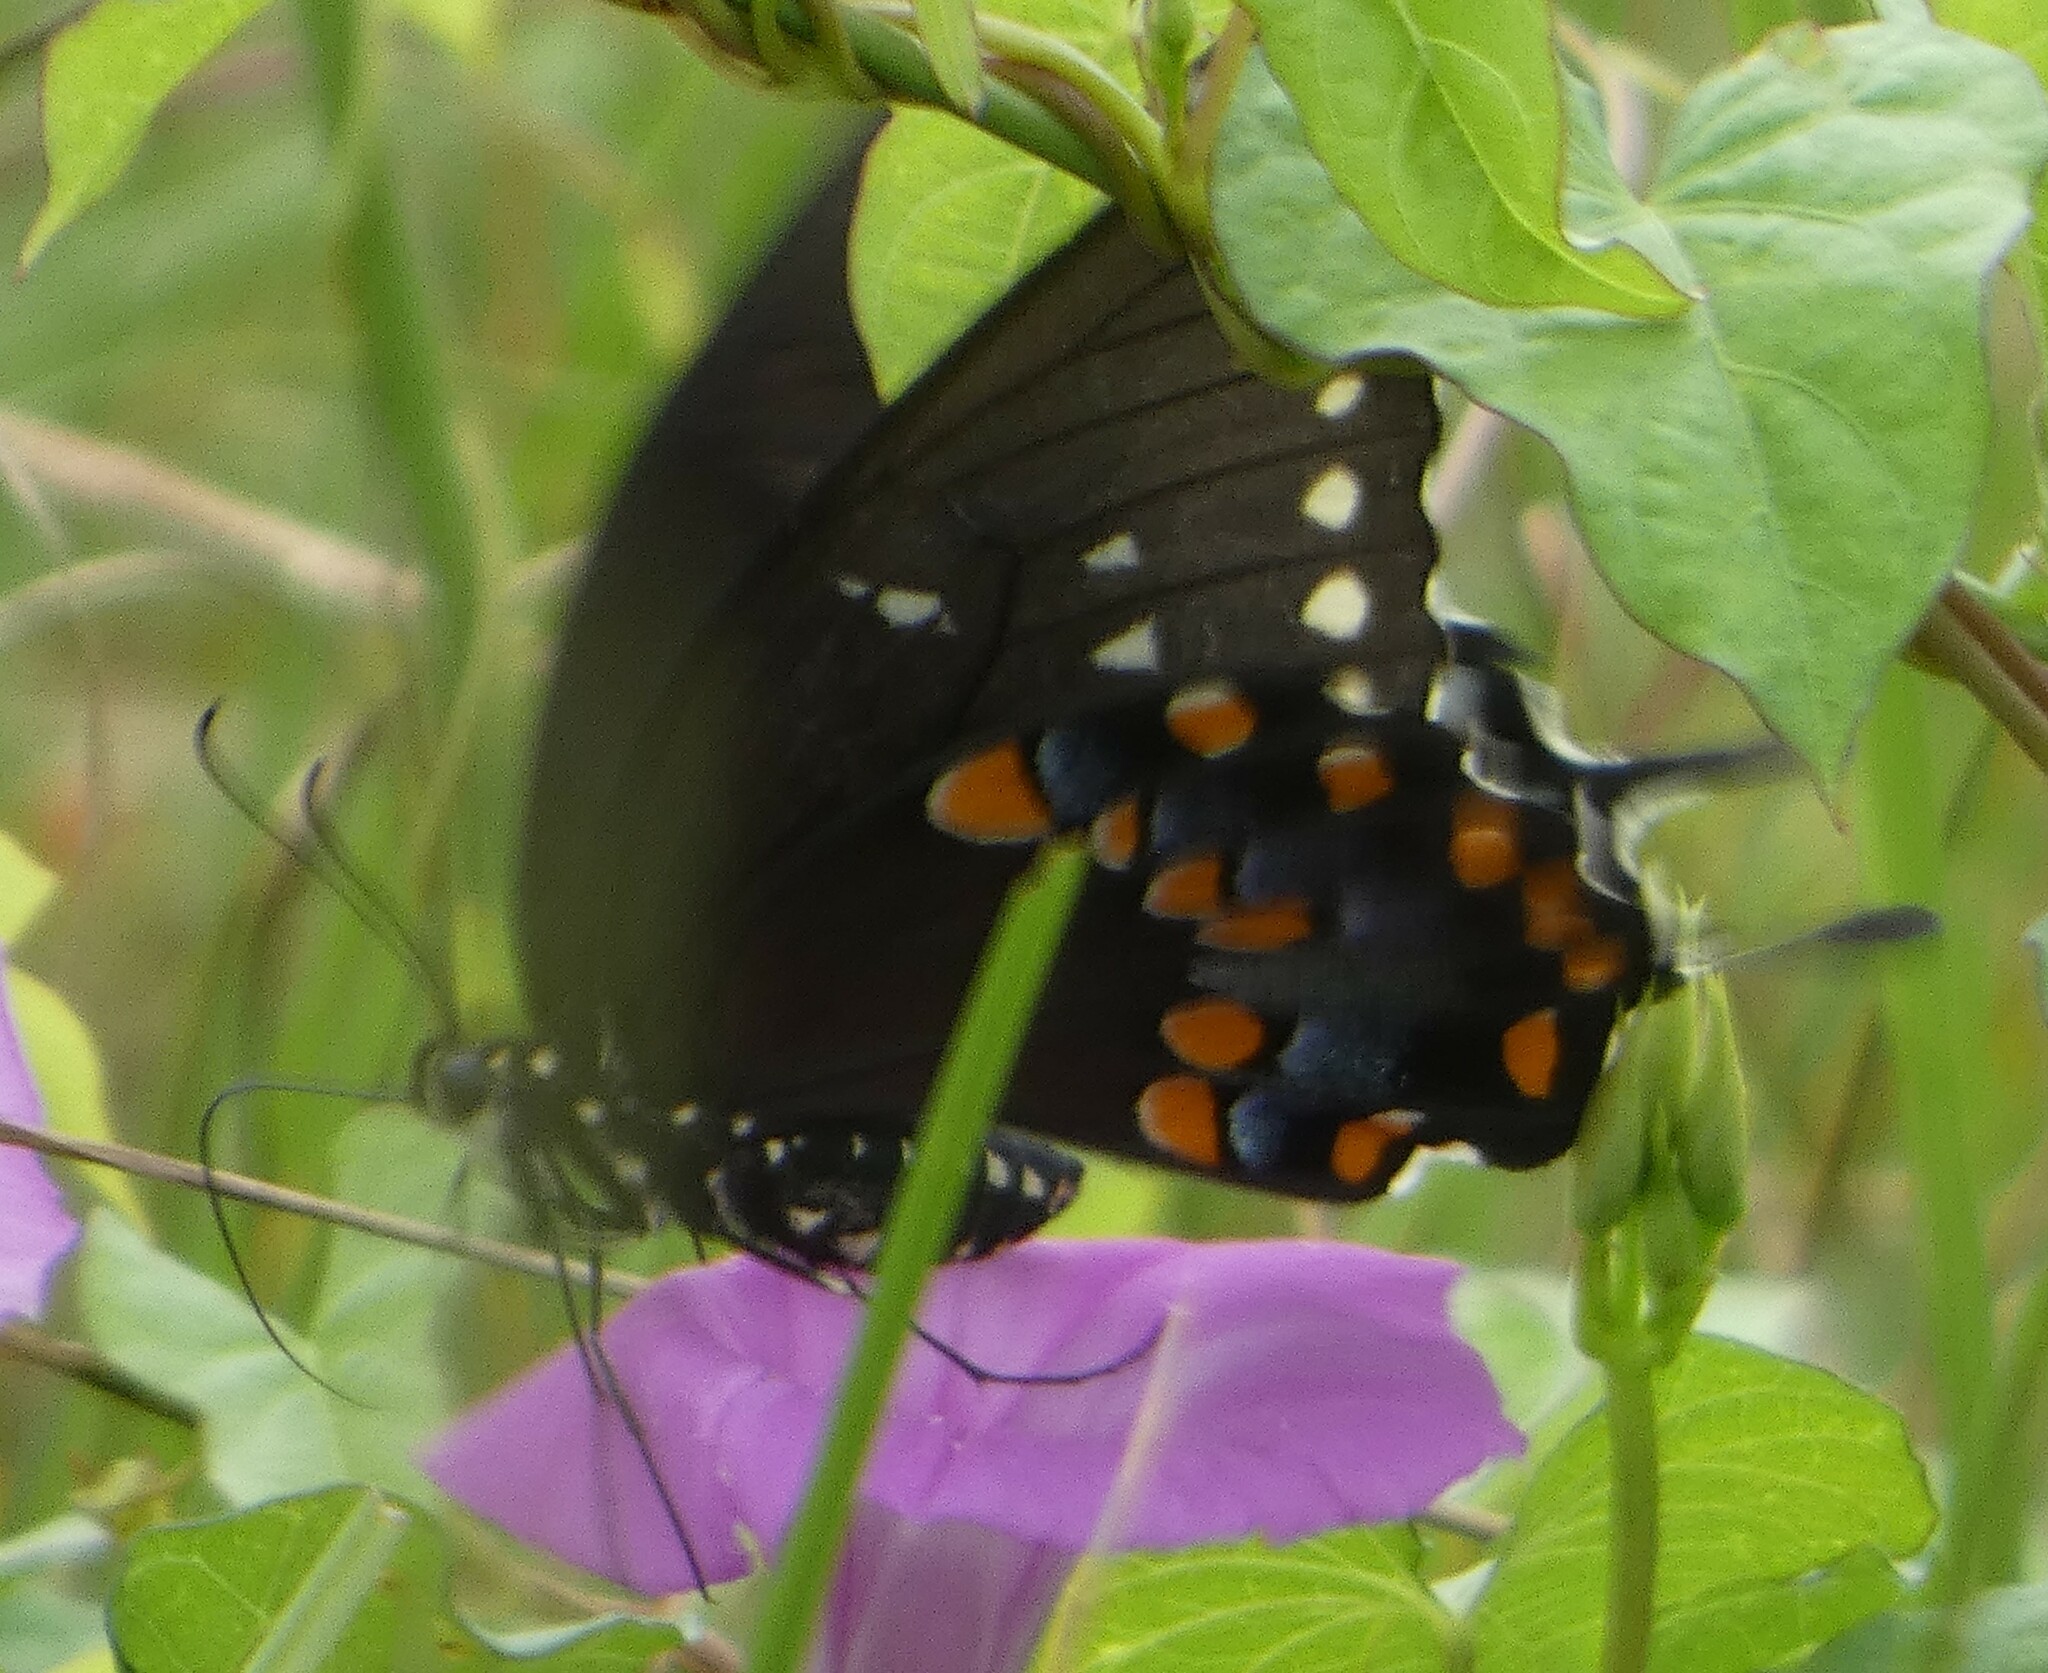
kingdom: Animalia
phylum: Arthropoda
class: Insecta
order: Lepidoptera
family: Papilionidae
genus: Papilio
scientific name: Papilio troilus
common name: Spicebush swallowtail
